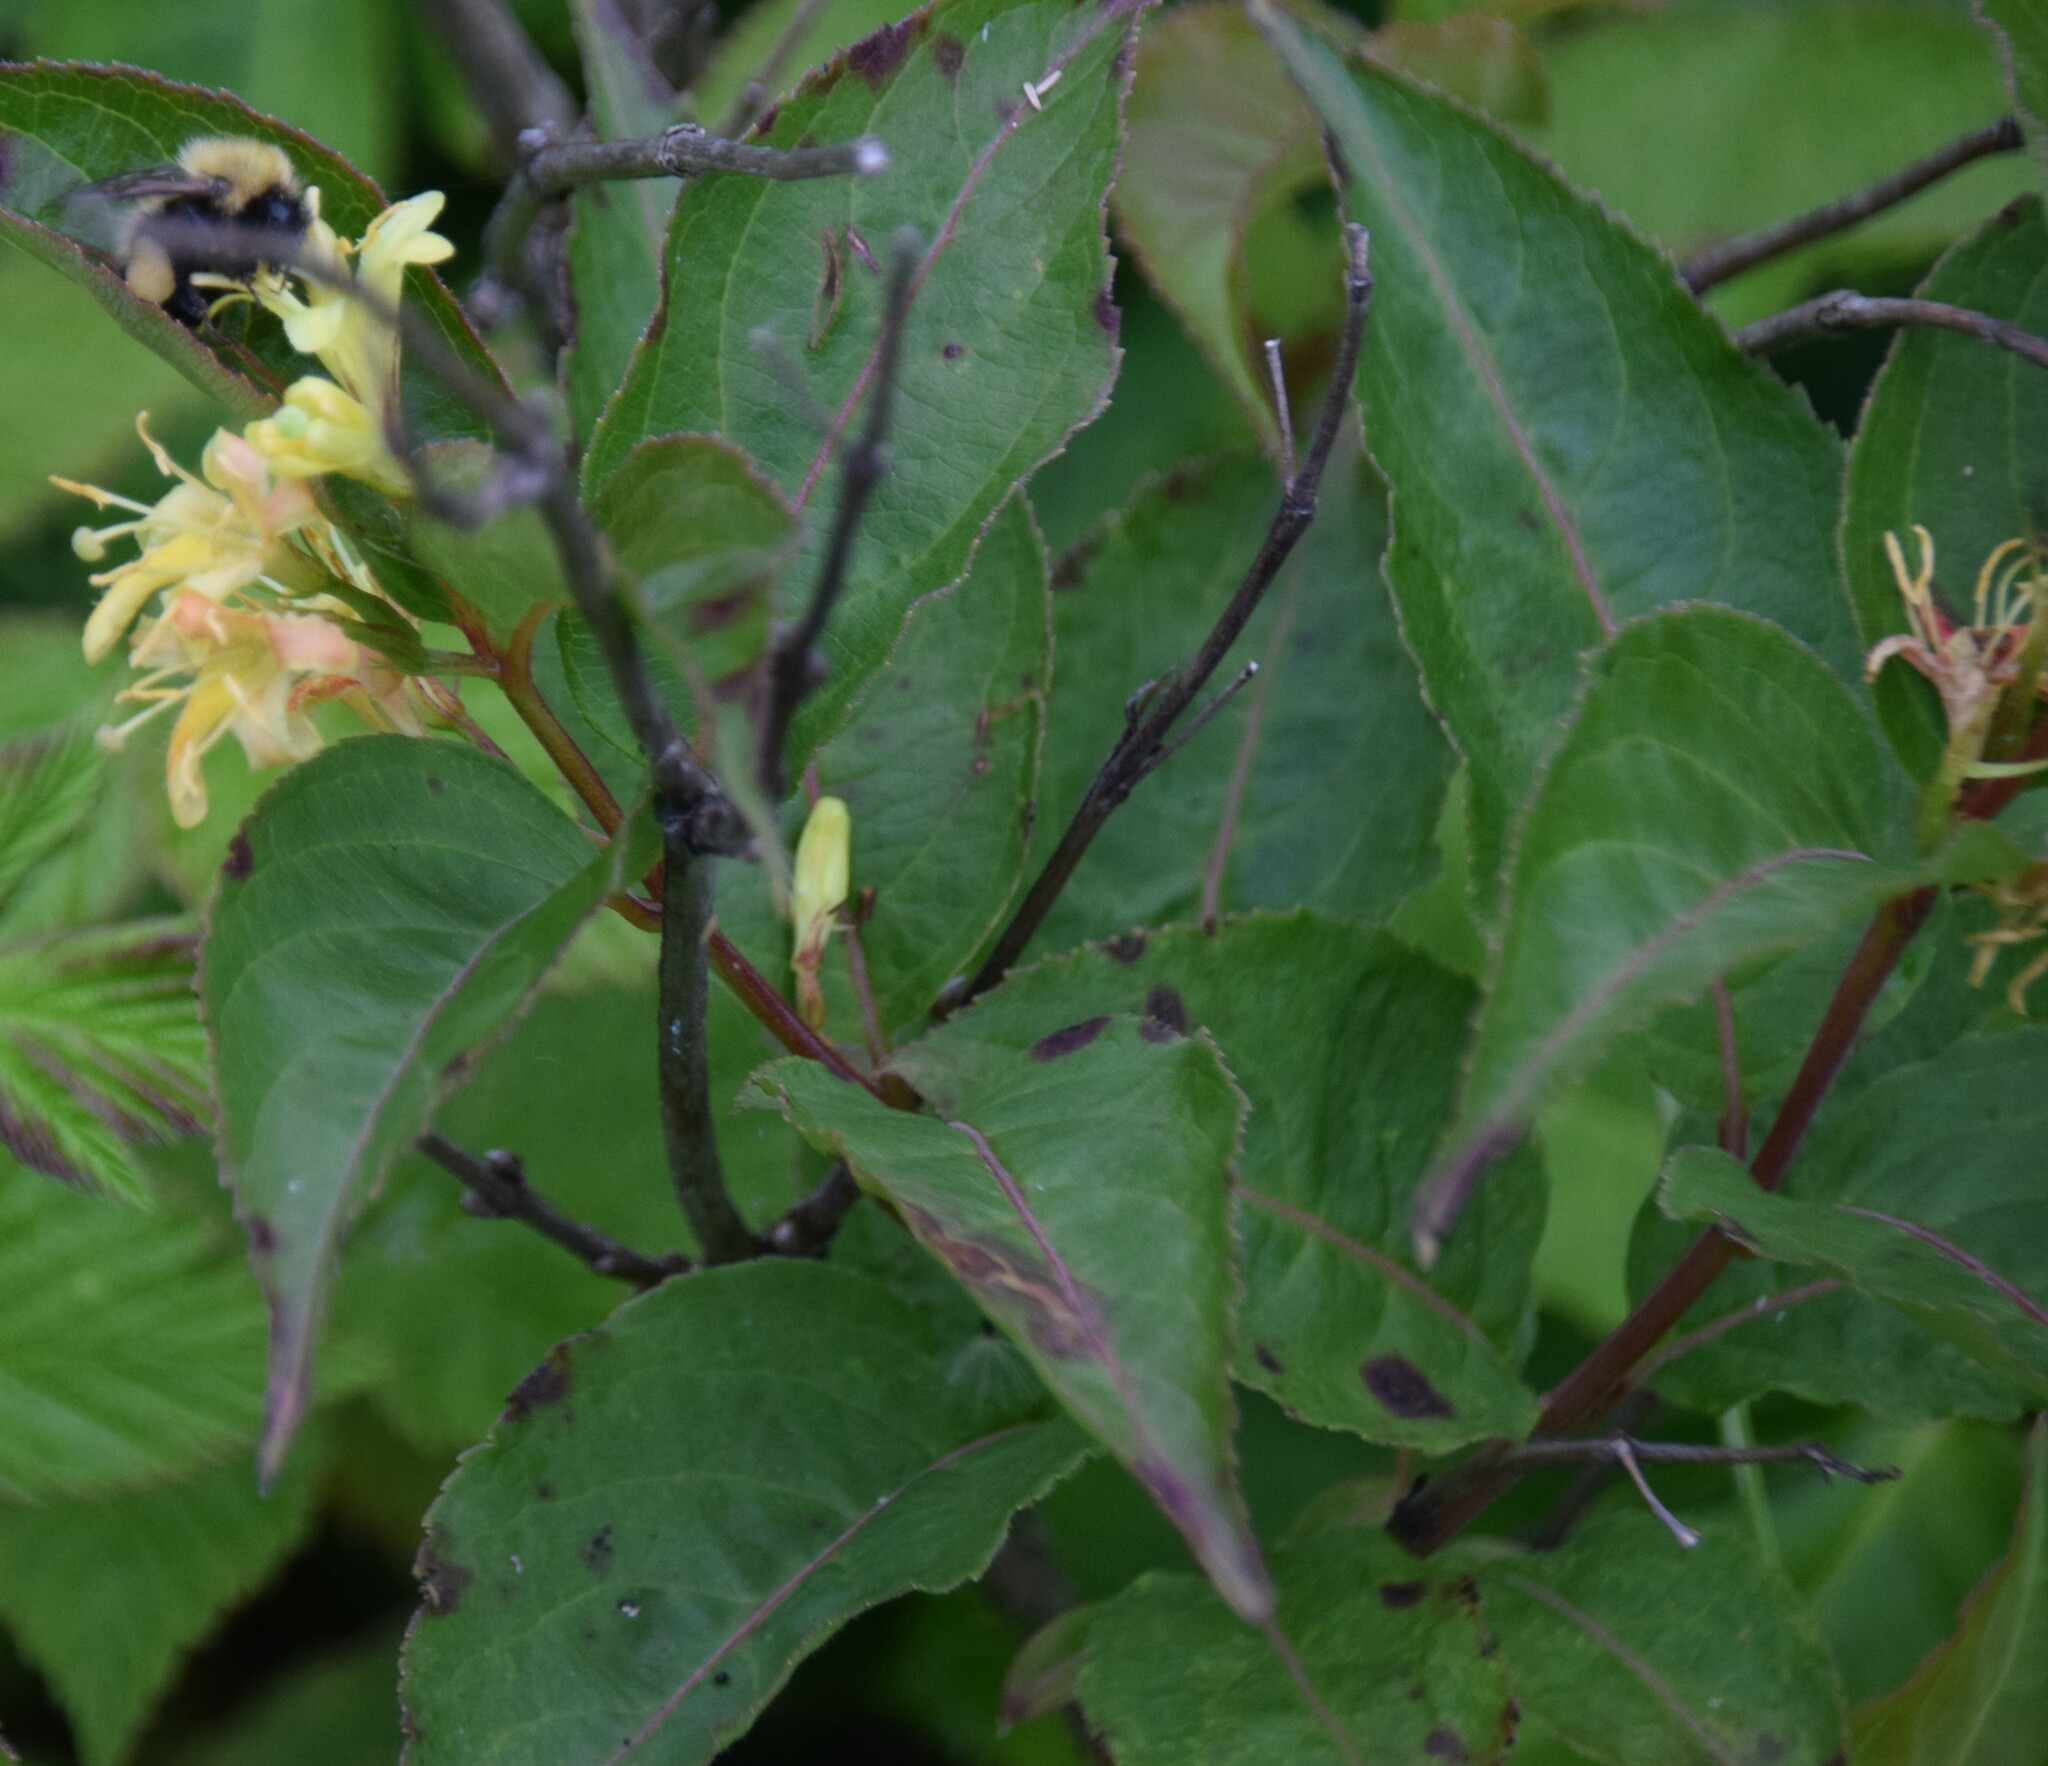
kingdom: Plantae
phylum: Tracheophyta
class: Magnoliopsida
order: Dipsacales
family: Caprifoliaceae
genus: Diervilla
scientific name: Diervilla lonicera
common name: Bush-honeysuckle
